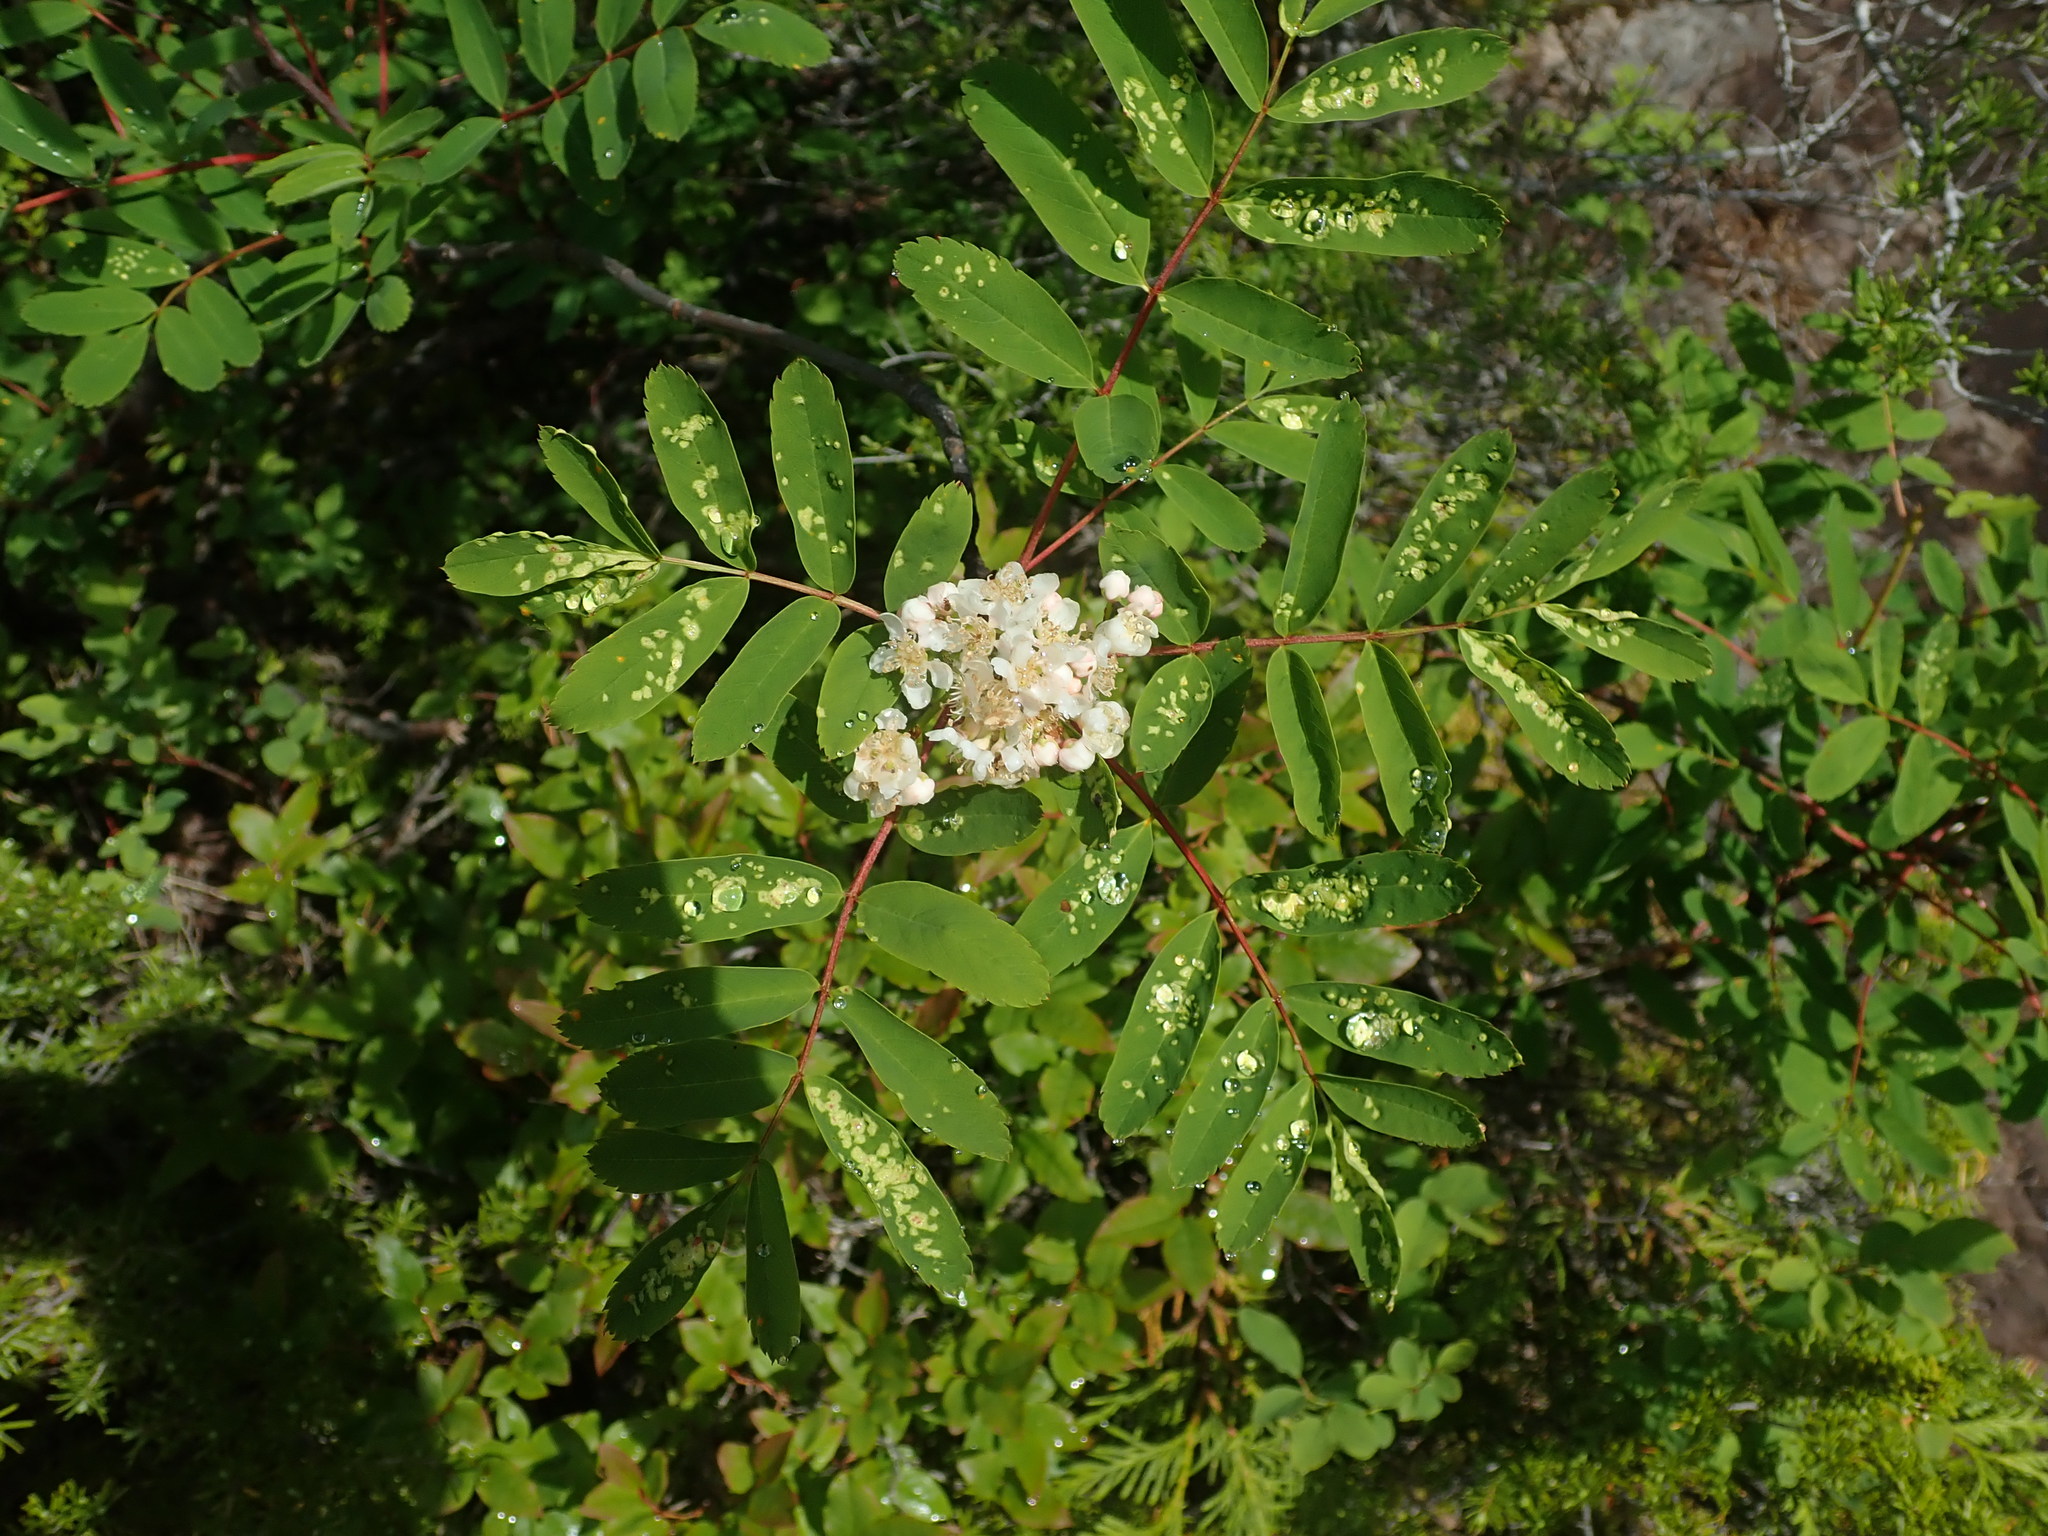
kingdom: Plantae
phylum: Tracheophyta
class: Magnoliopsida
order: Rosales
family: Rosaceae
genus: Sorbus
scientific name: Sorbus sitchensis
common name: Sitka mountain-ash
